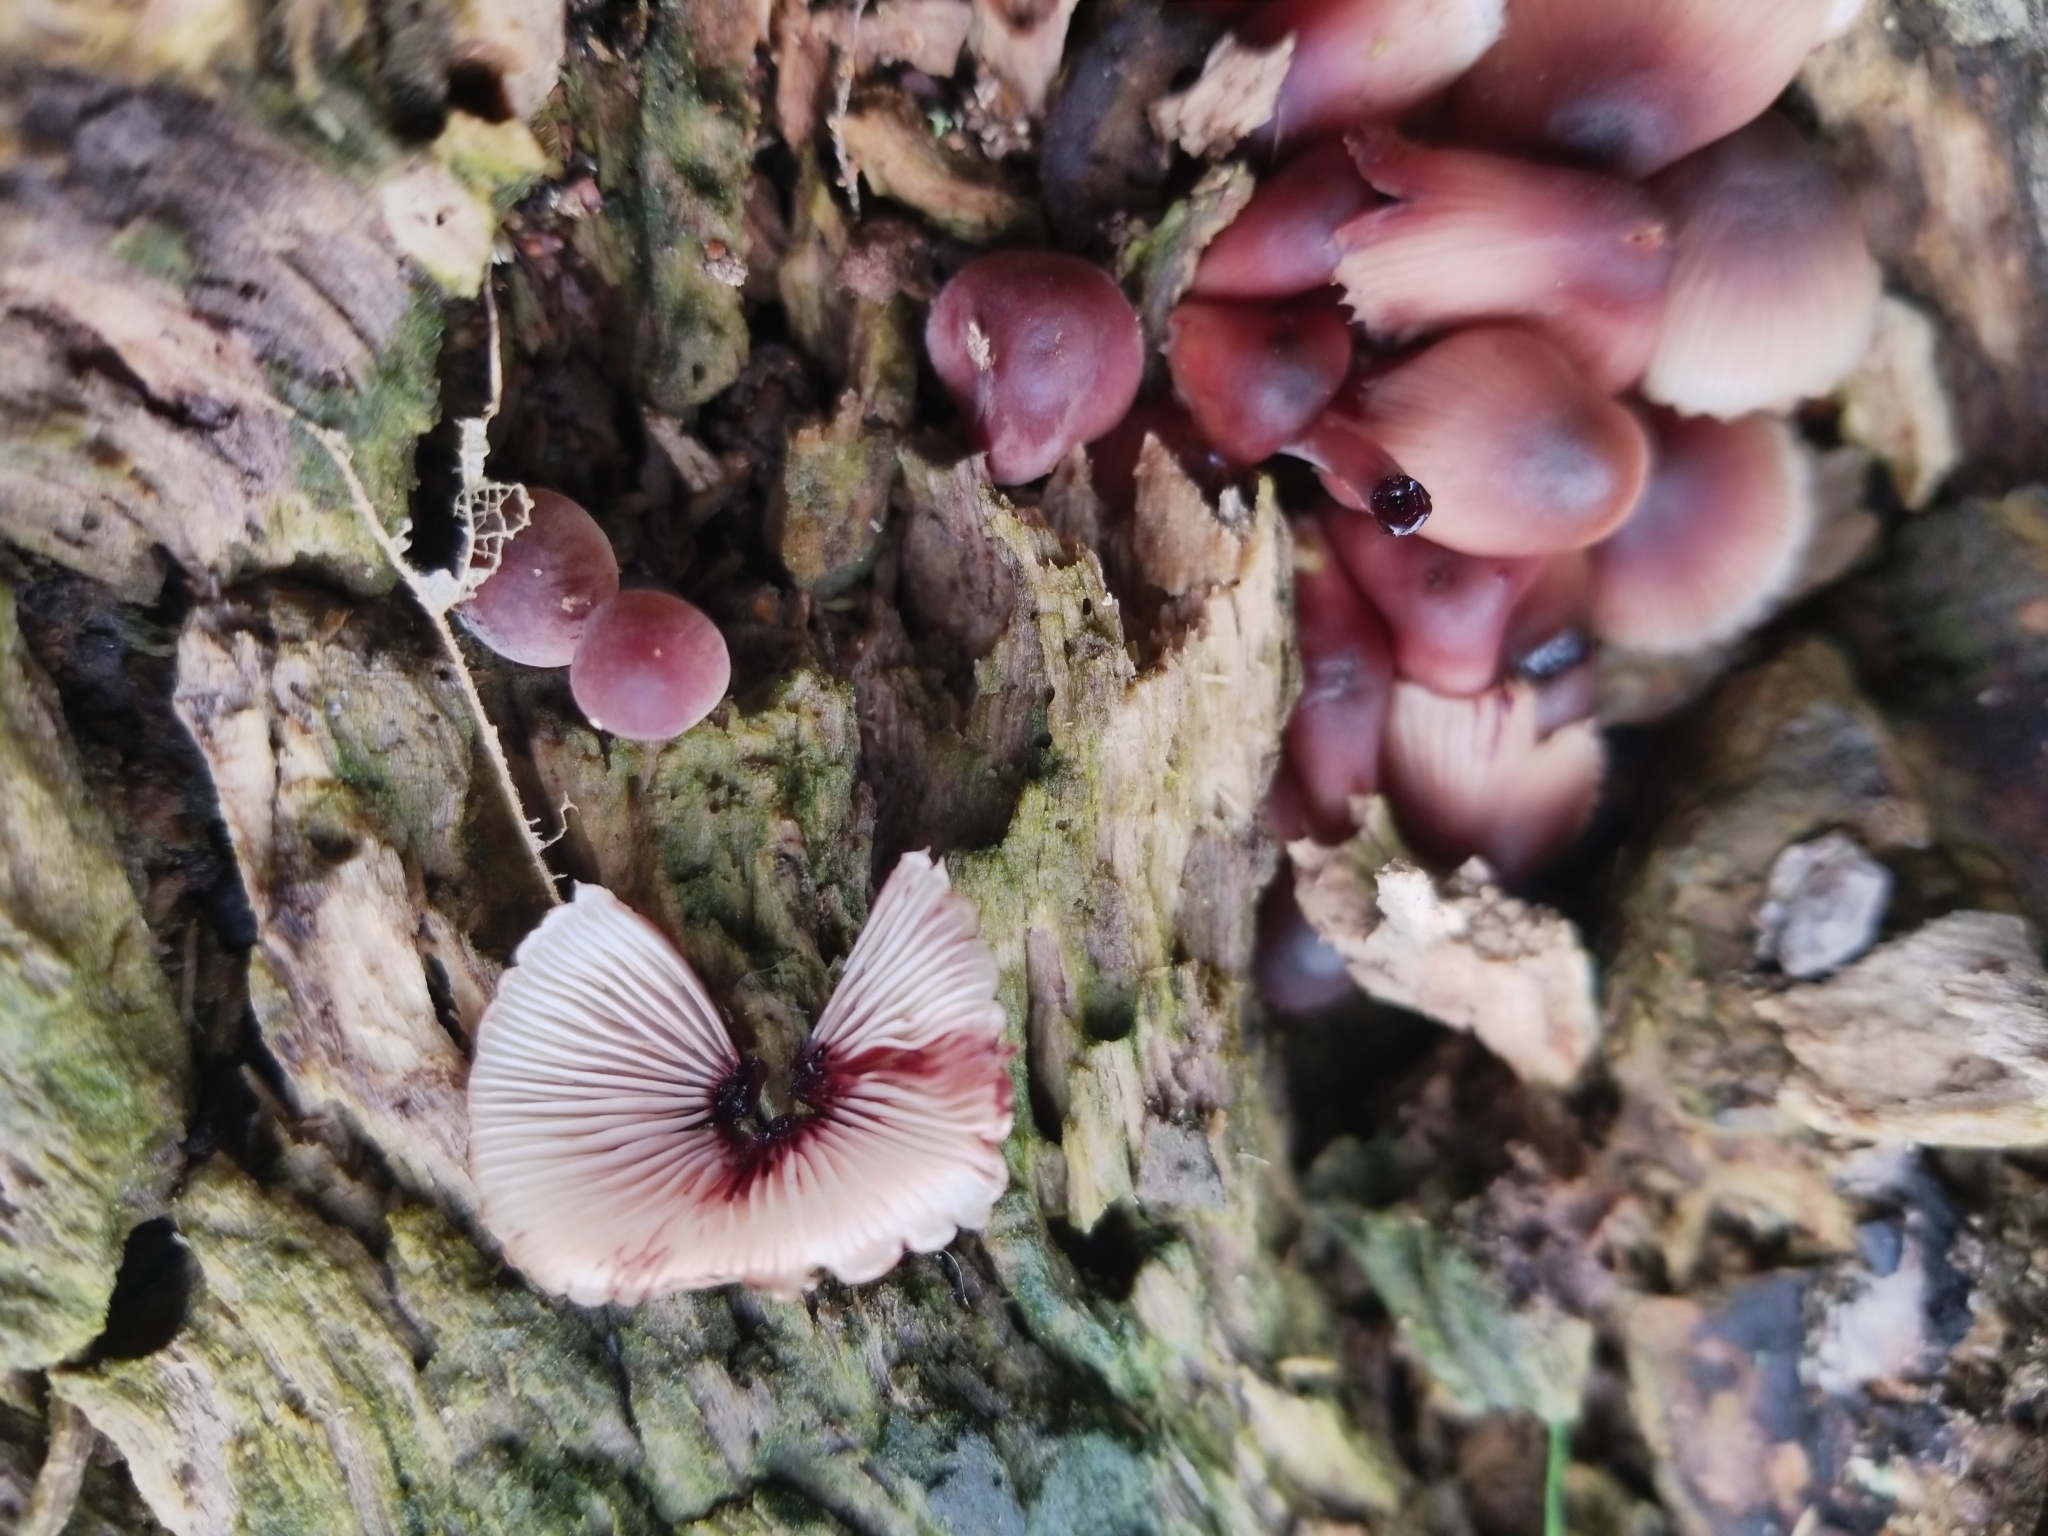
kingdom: Fungi
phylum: Basidiomycota
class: Agaricomycetes
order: Agaricales
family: Mycenaceae
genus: Mycena
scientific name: Mycena haematopus
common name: Burgundydrop bonnet
